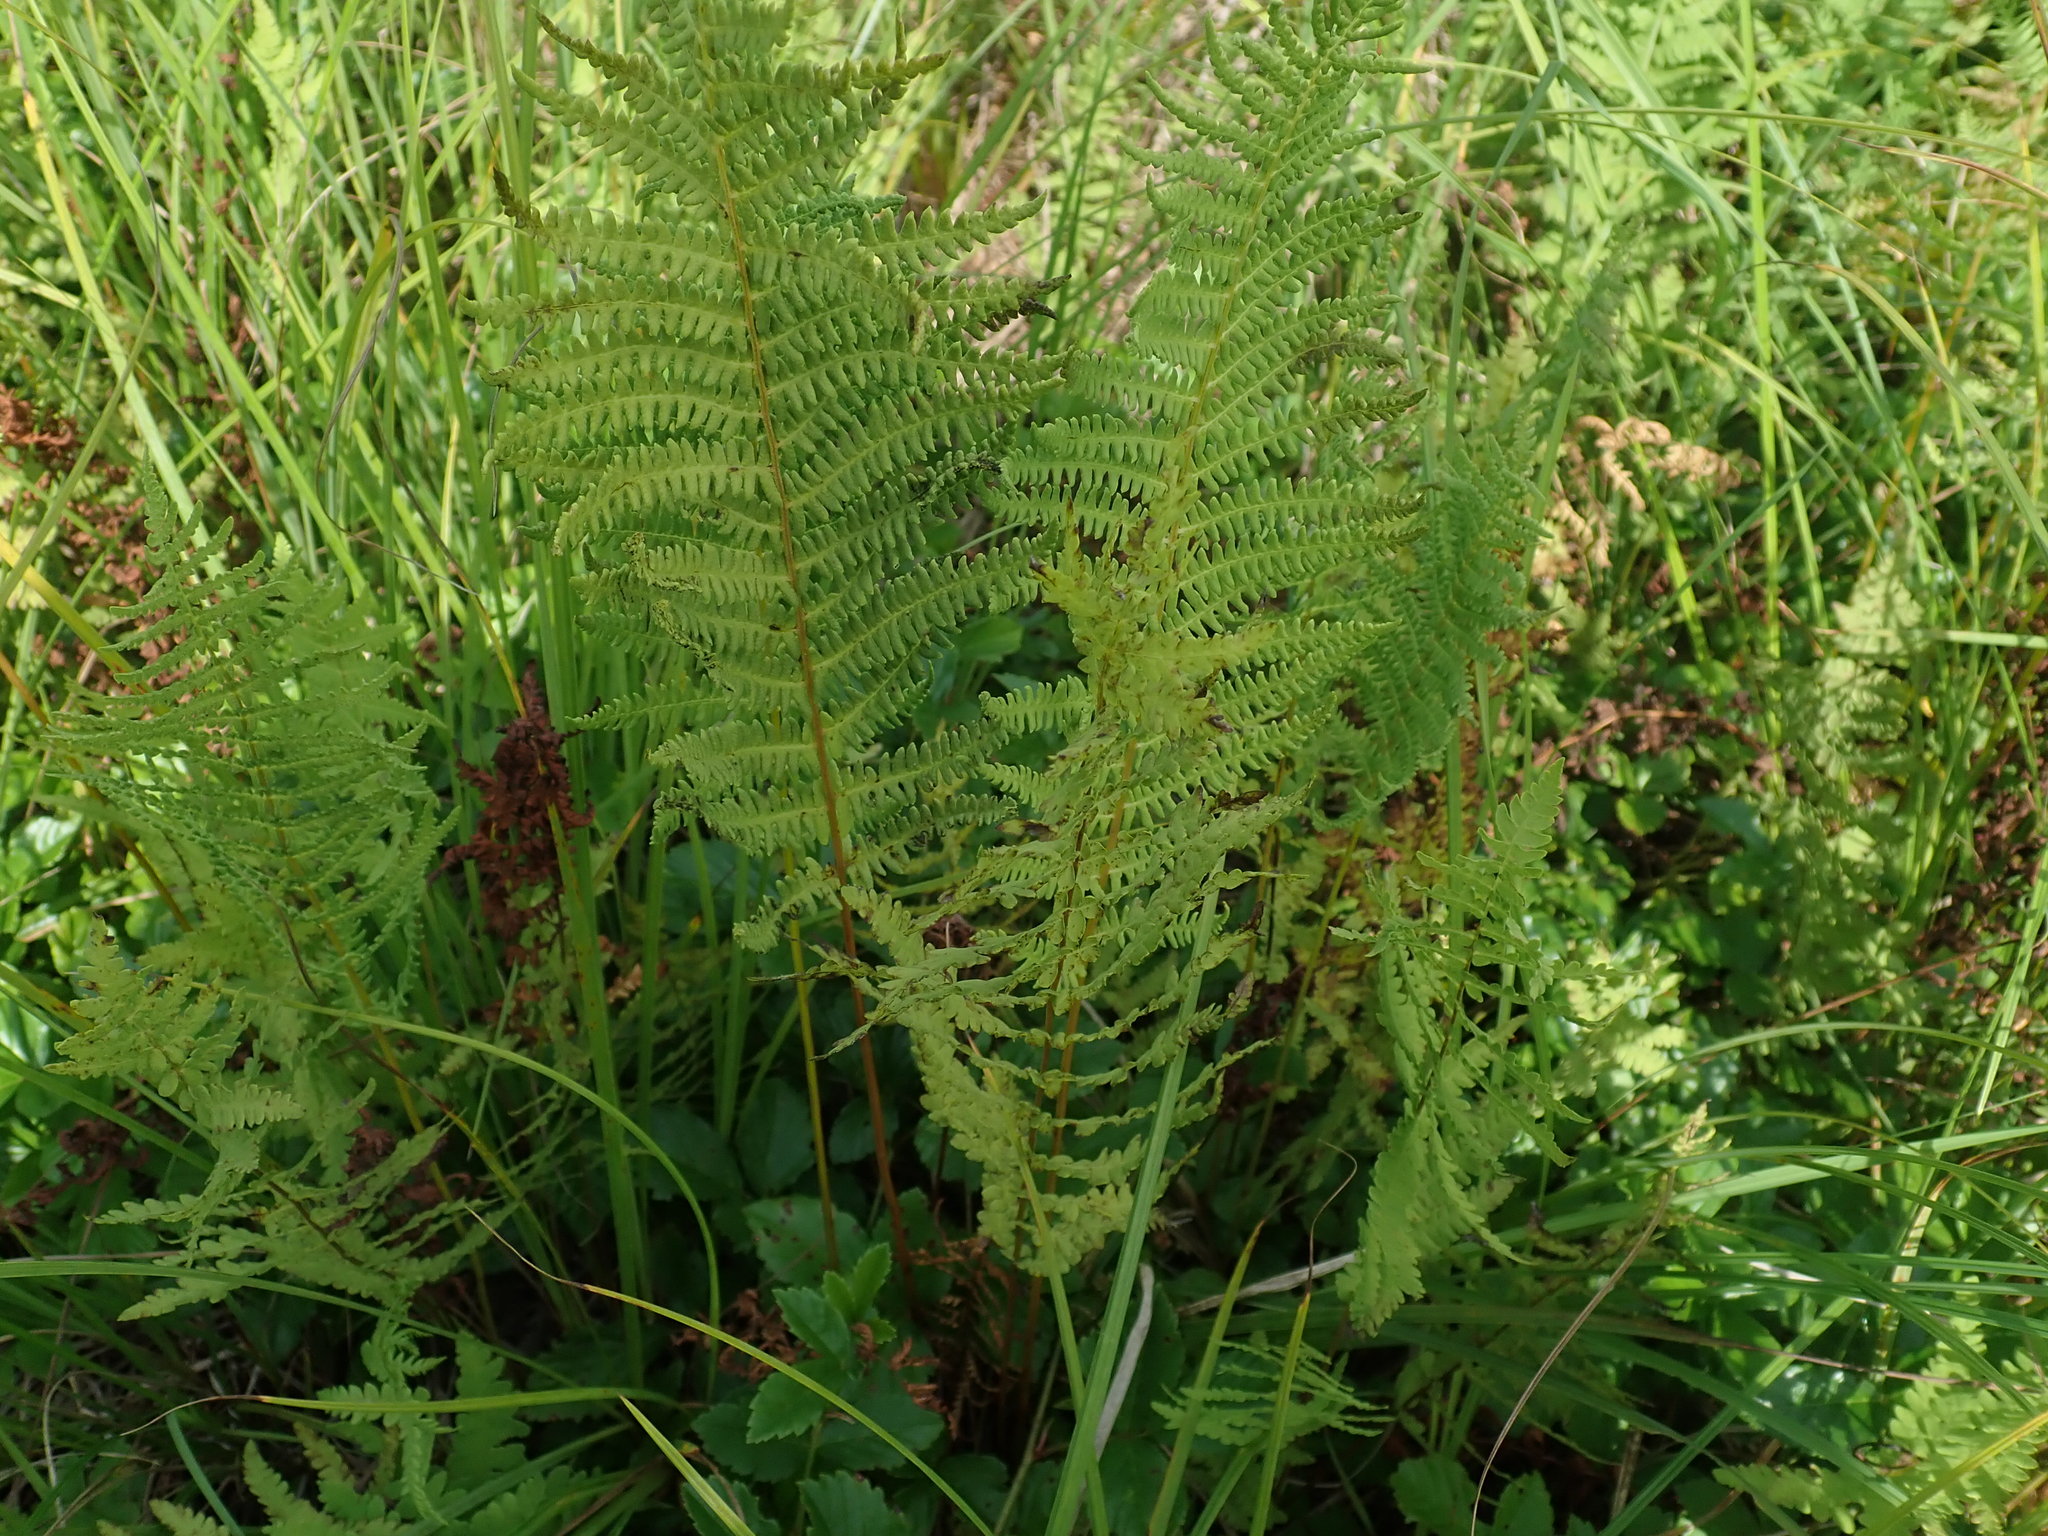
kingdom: Plantae
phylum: Tracheophyta
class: Polypodiopsida
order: Polypodiales
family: Thelypteridaceae
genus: Thelypteris
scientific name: Thelypteris palustris
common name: Marsh fern
